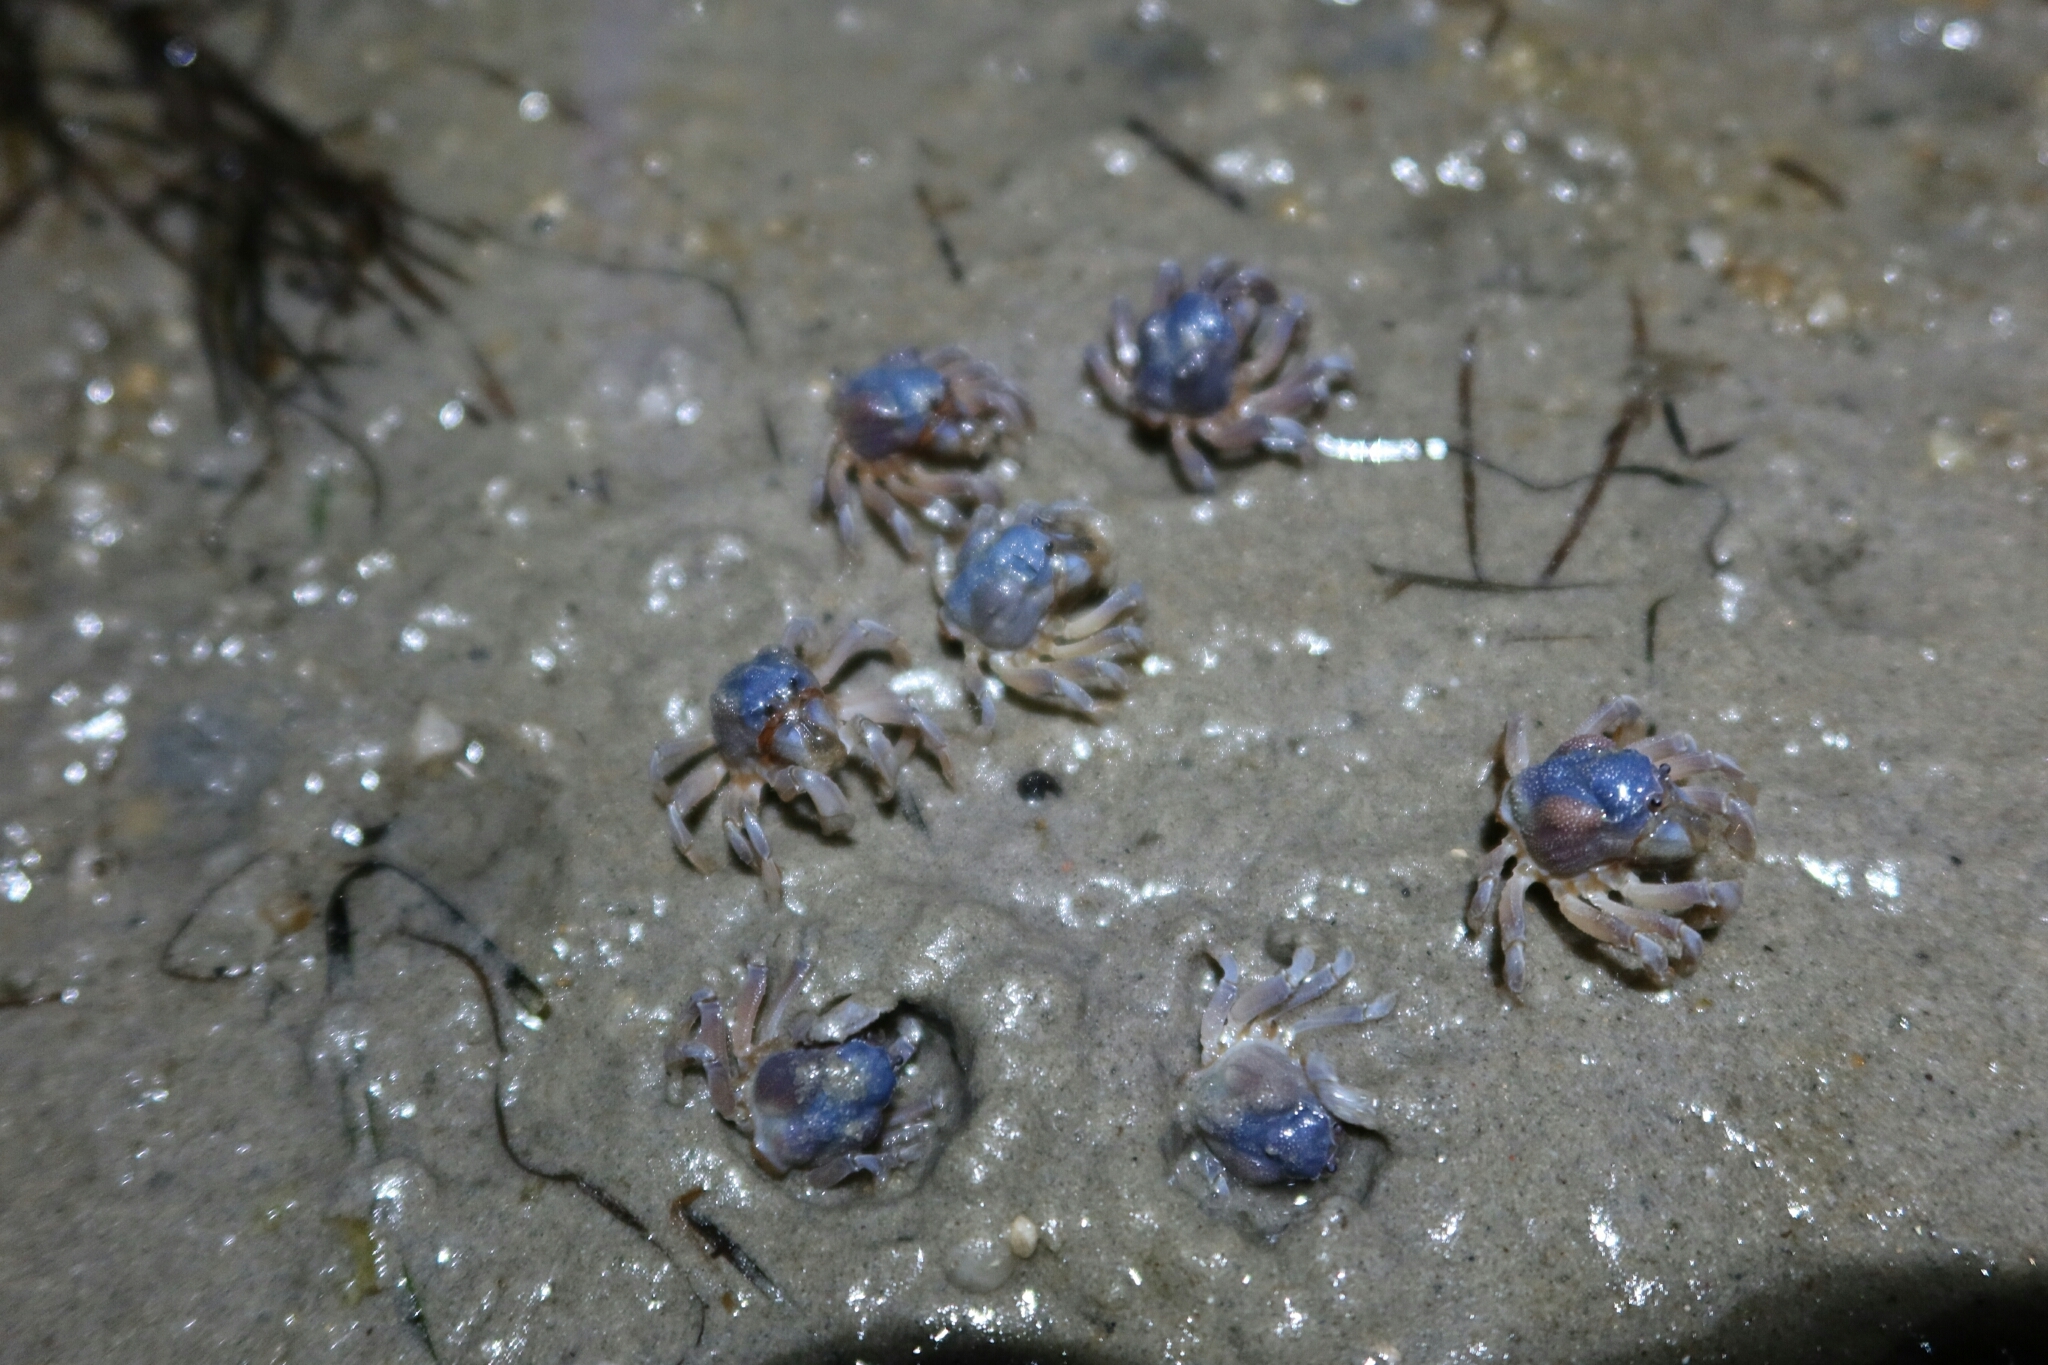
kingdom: Animalia
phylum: Arthropoda
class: Malacostraca
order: Decapoda
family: Mictyridae
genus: Mictyris
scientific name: Mictyris platycheles
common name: Dark blue soldier crab
